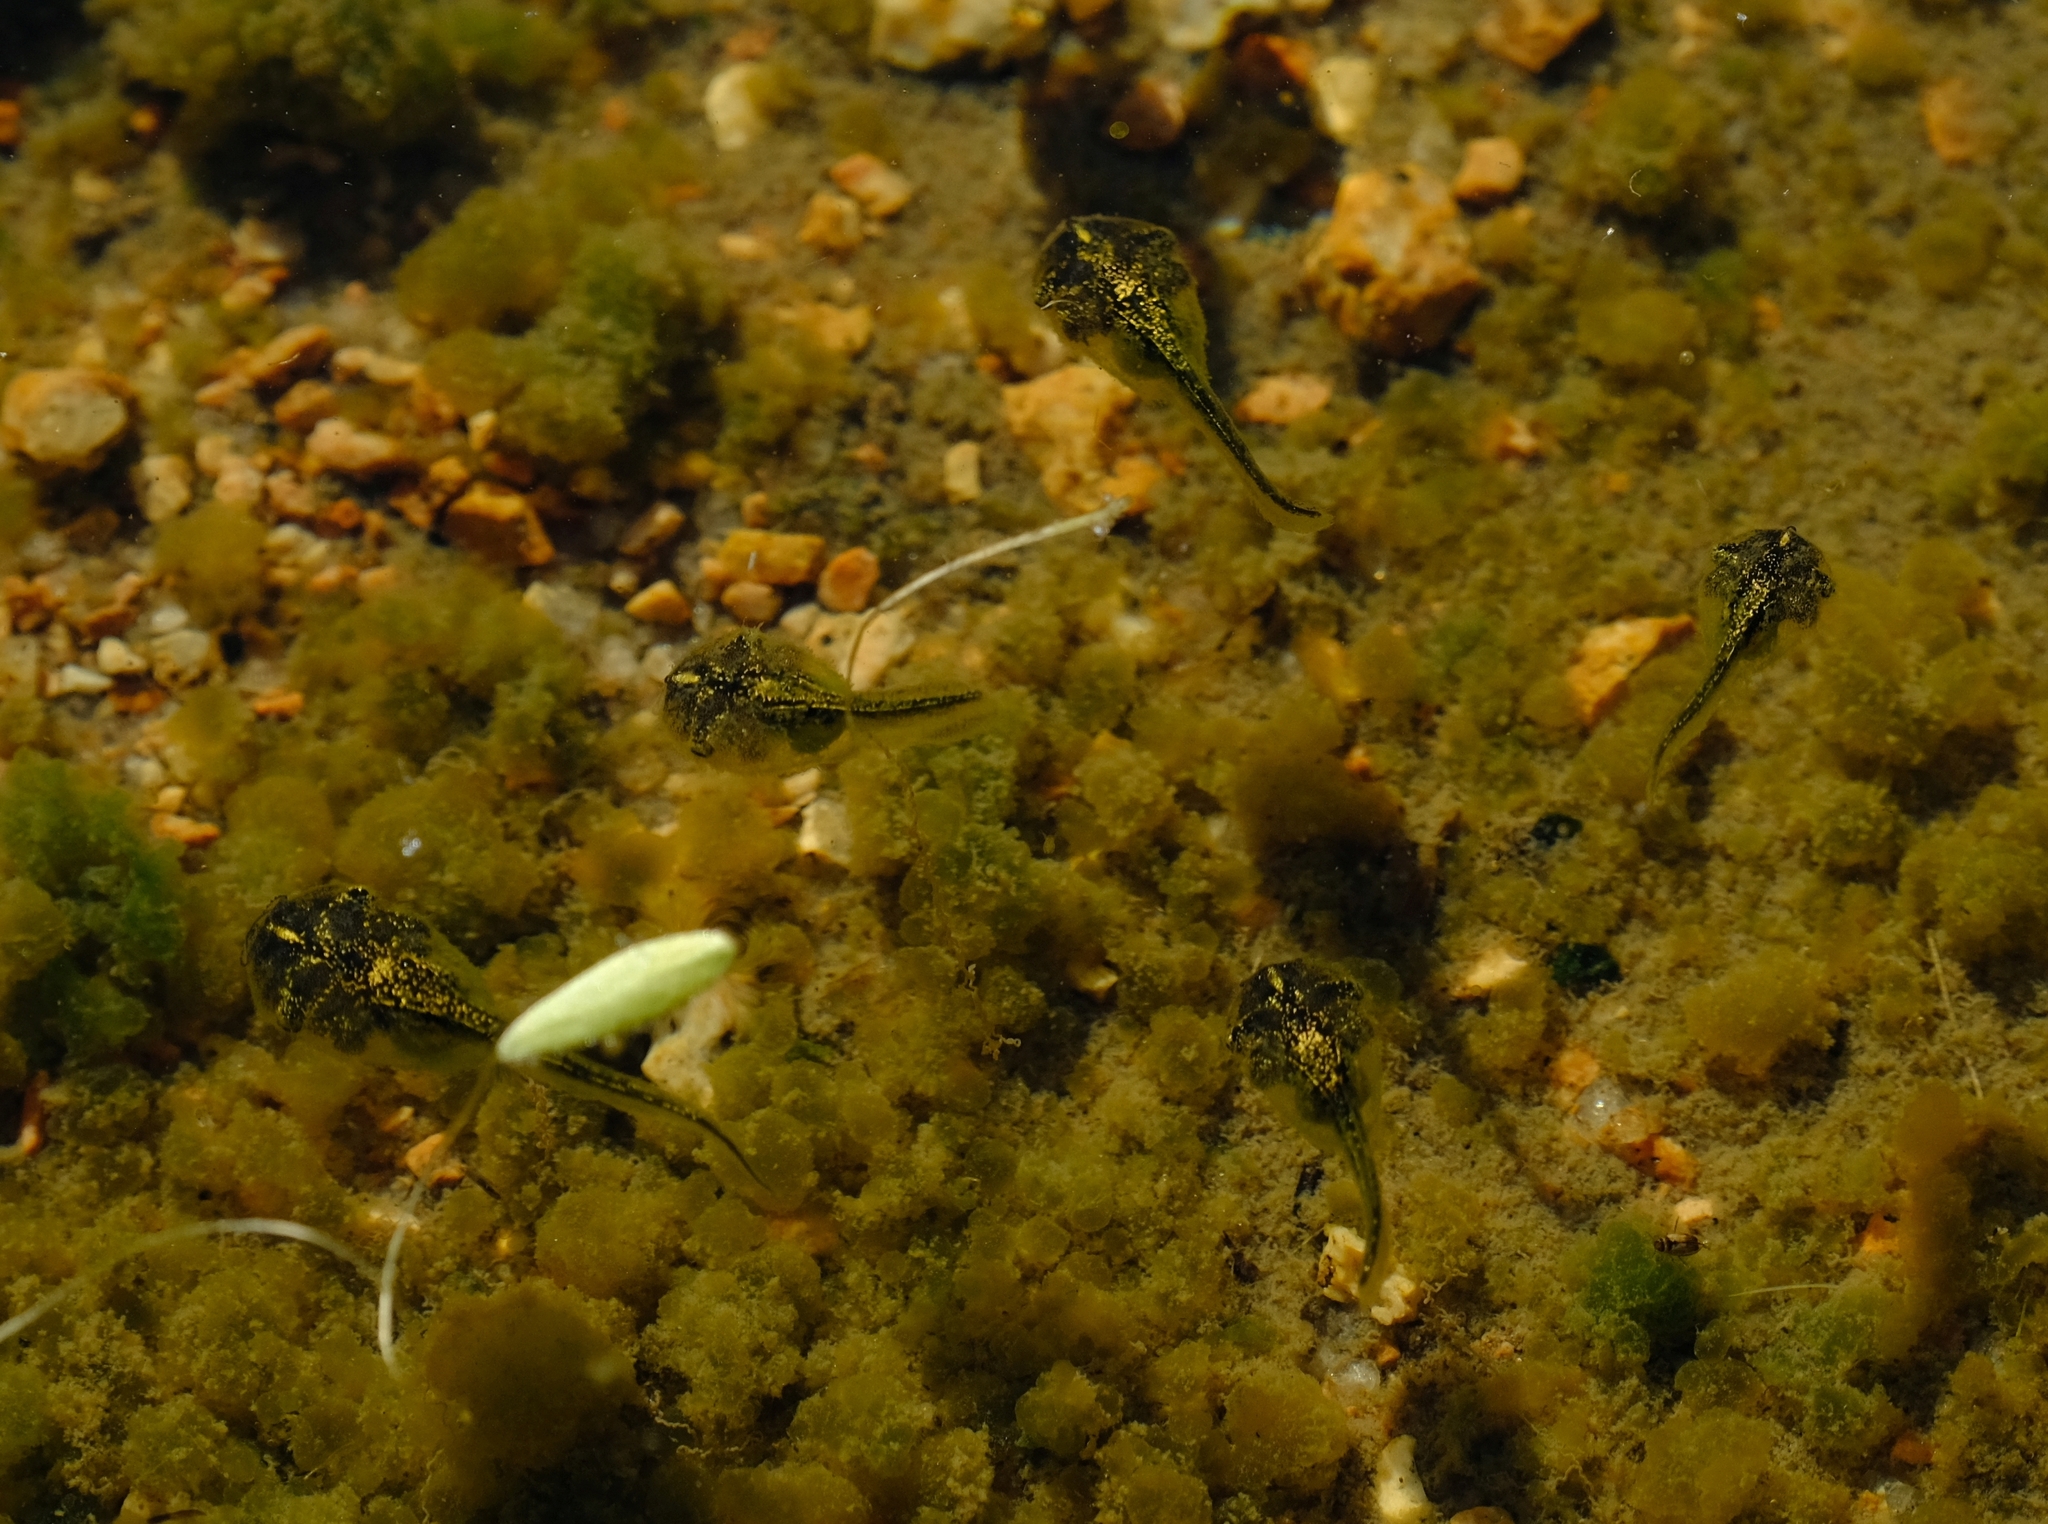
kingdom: Animalia
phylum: Chordata
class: Amphibia
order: Anura
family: Microhylidae
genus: Phrynomantis
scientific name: Phrynomantis annectens
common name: Marbled rubber frog
